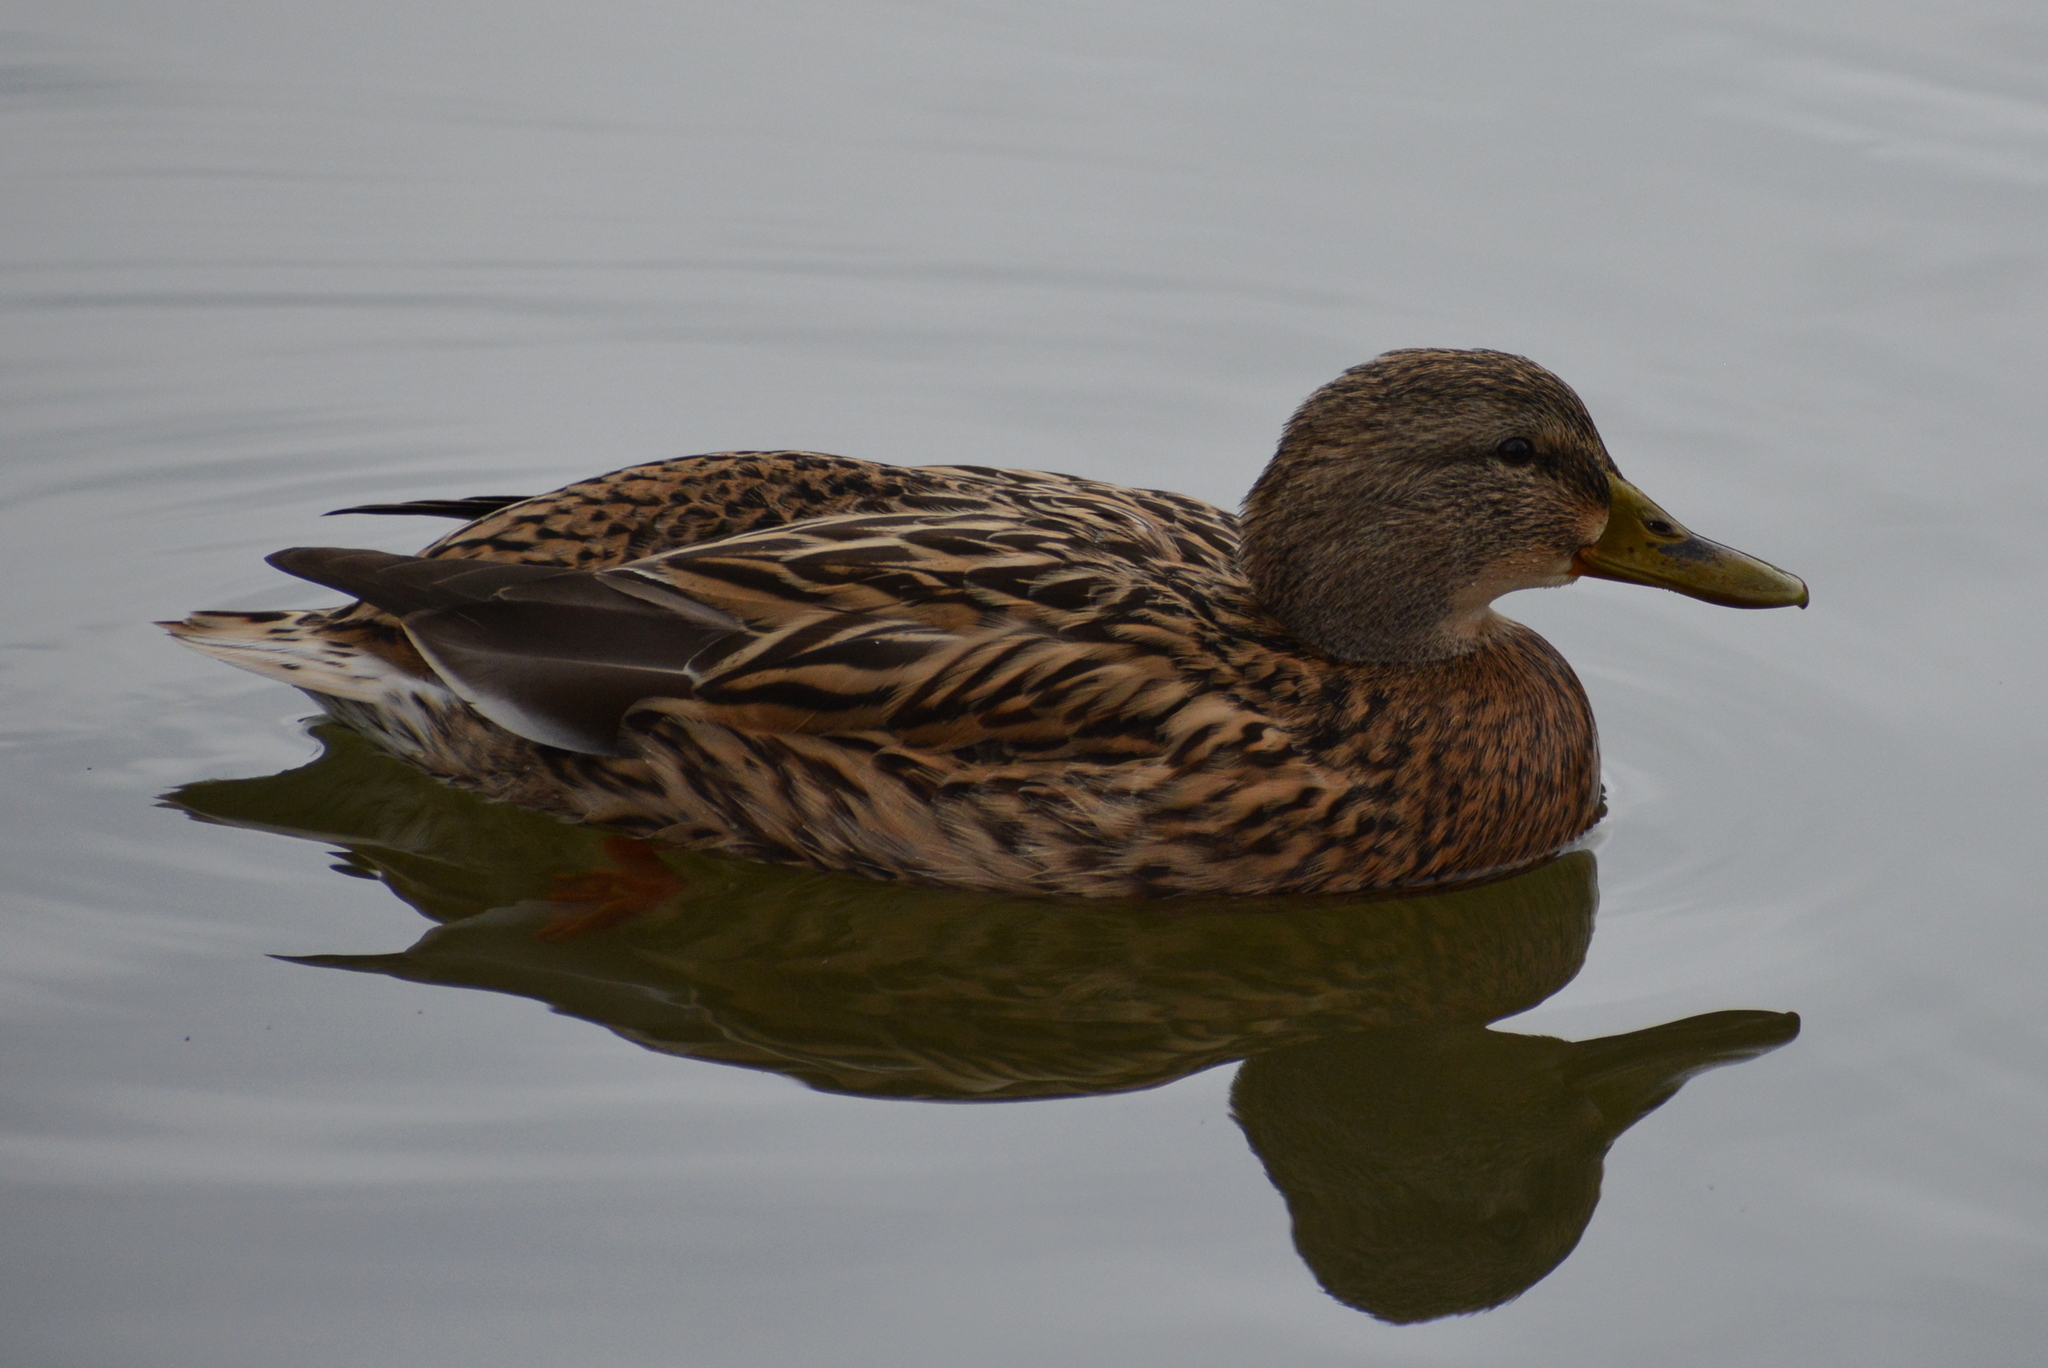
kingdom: Animalia
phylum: Chordata
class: Aves
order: Anseriformes
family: Anatidae
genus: Anas
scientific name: Anas platyrhynchos
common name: Mallard
